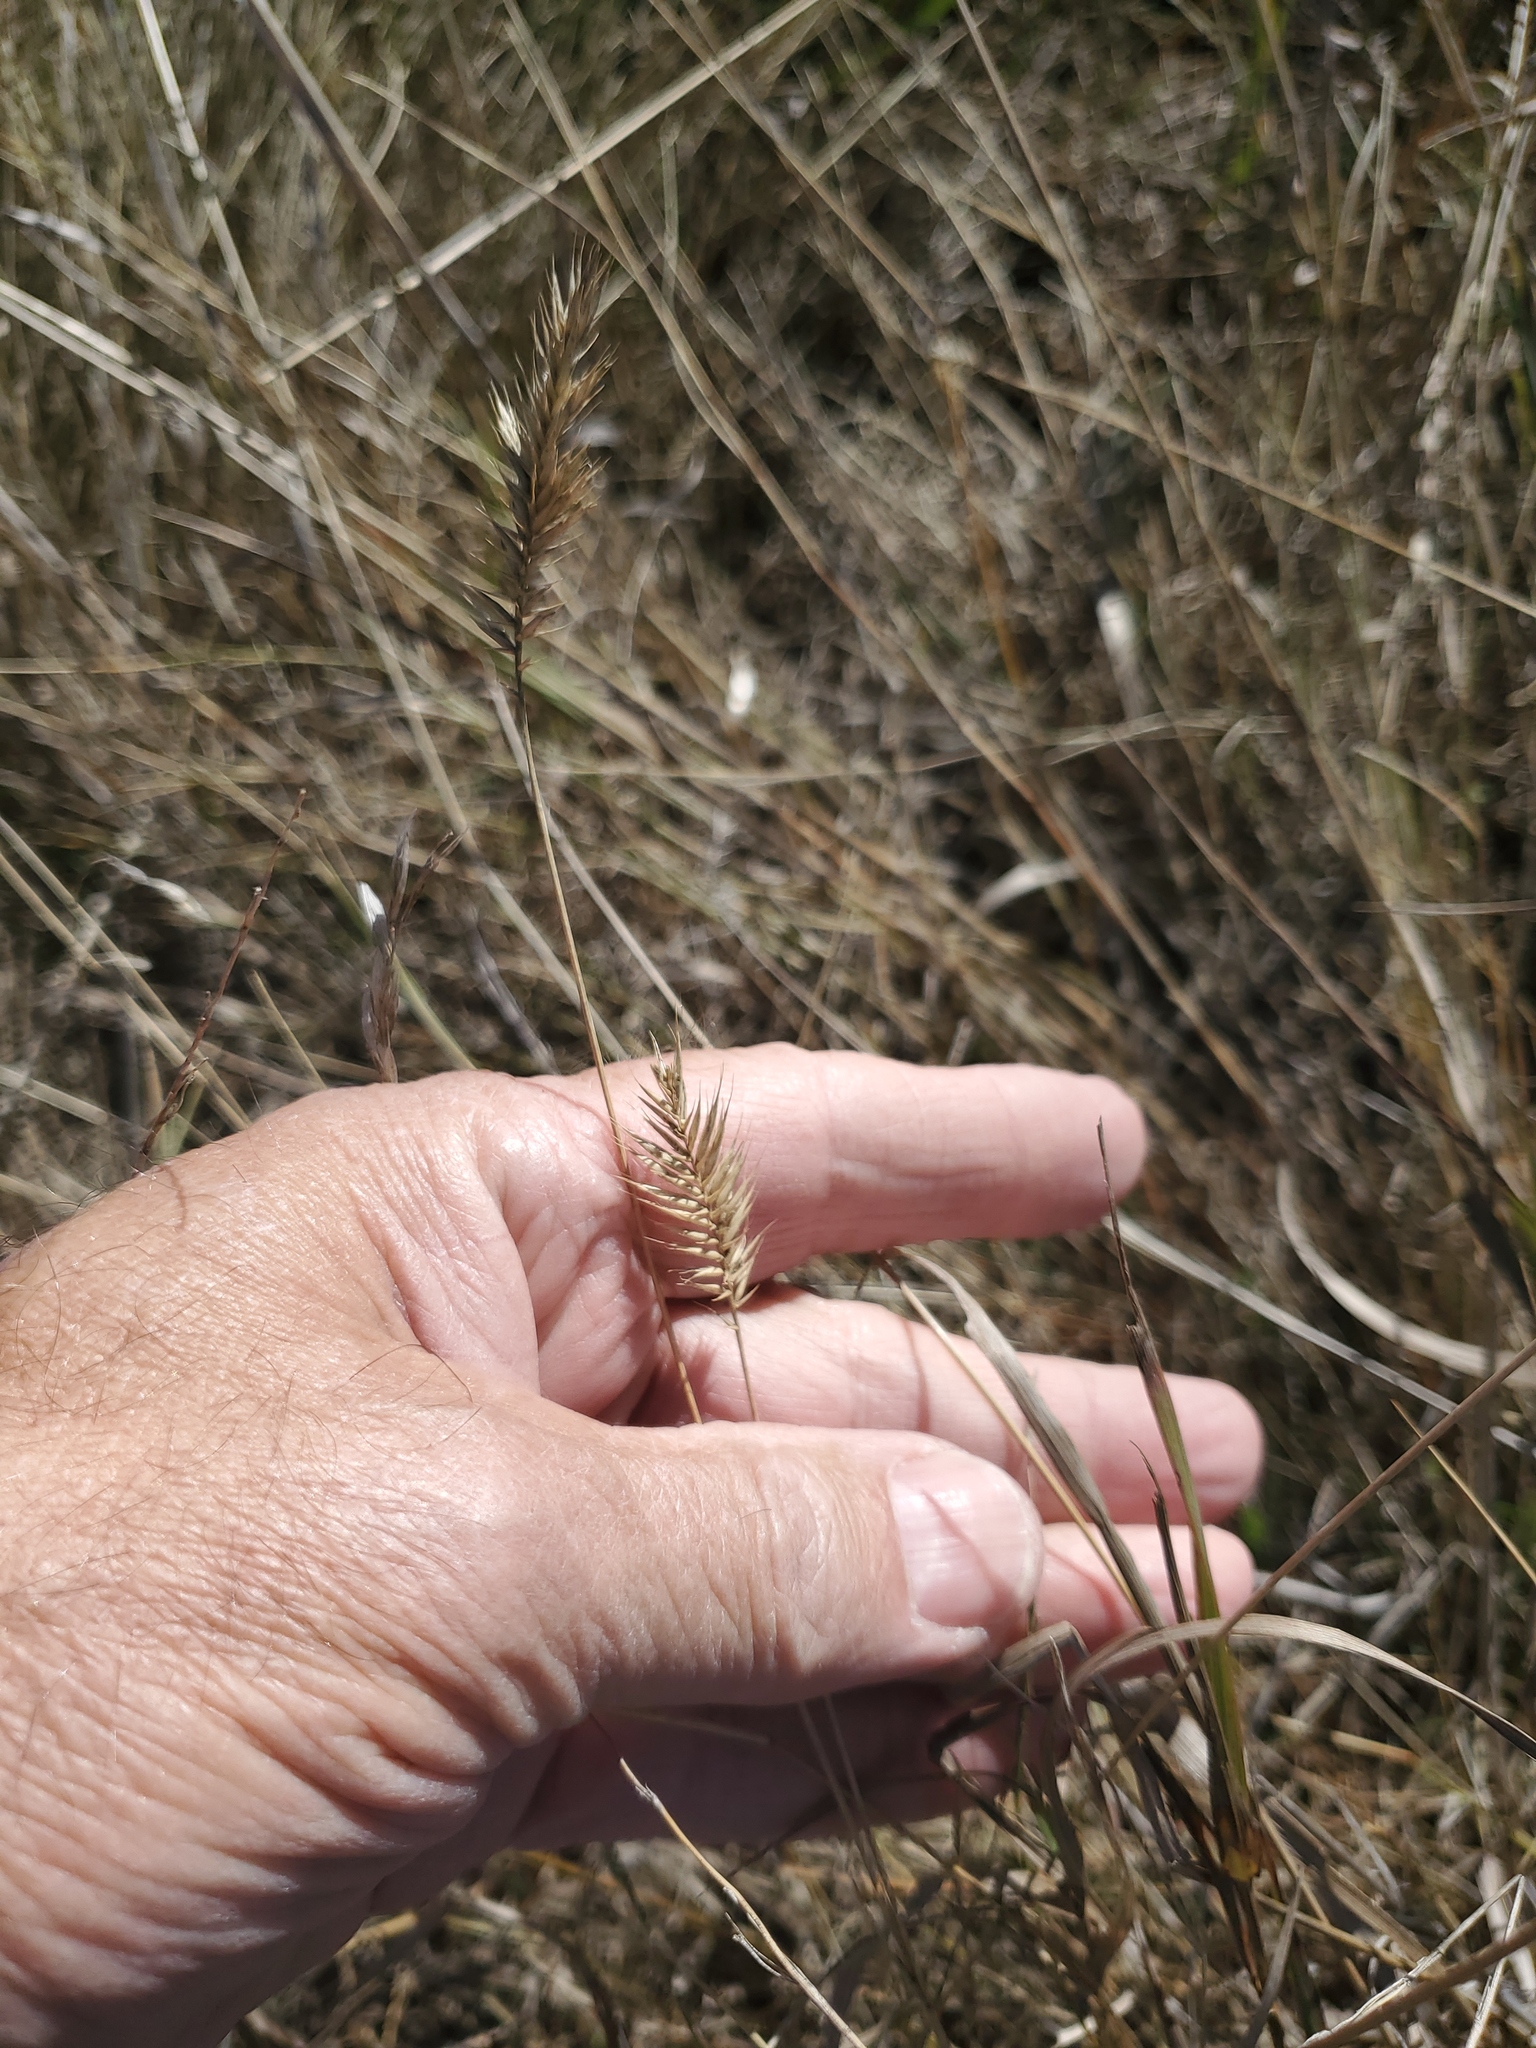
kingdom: Plantae
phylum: Tracheophyta
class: Liliopsida
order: Poales
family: Poaceae
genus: Agropyron
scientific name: Agropyron cristatum
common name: Crested wheatgrass
